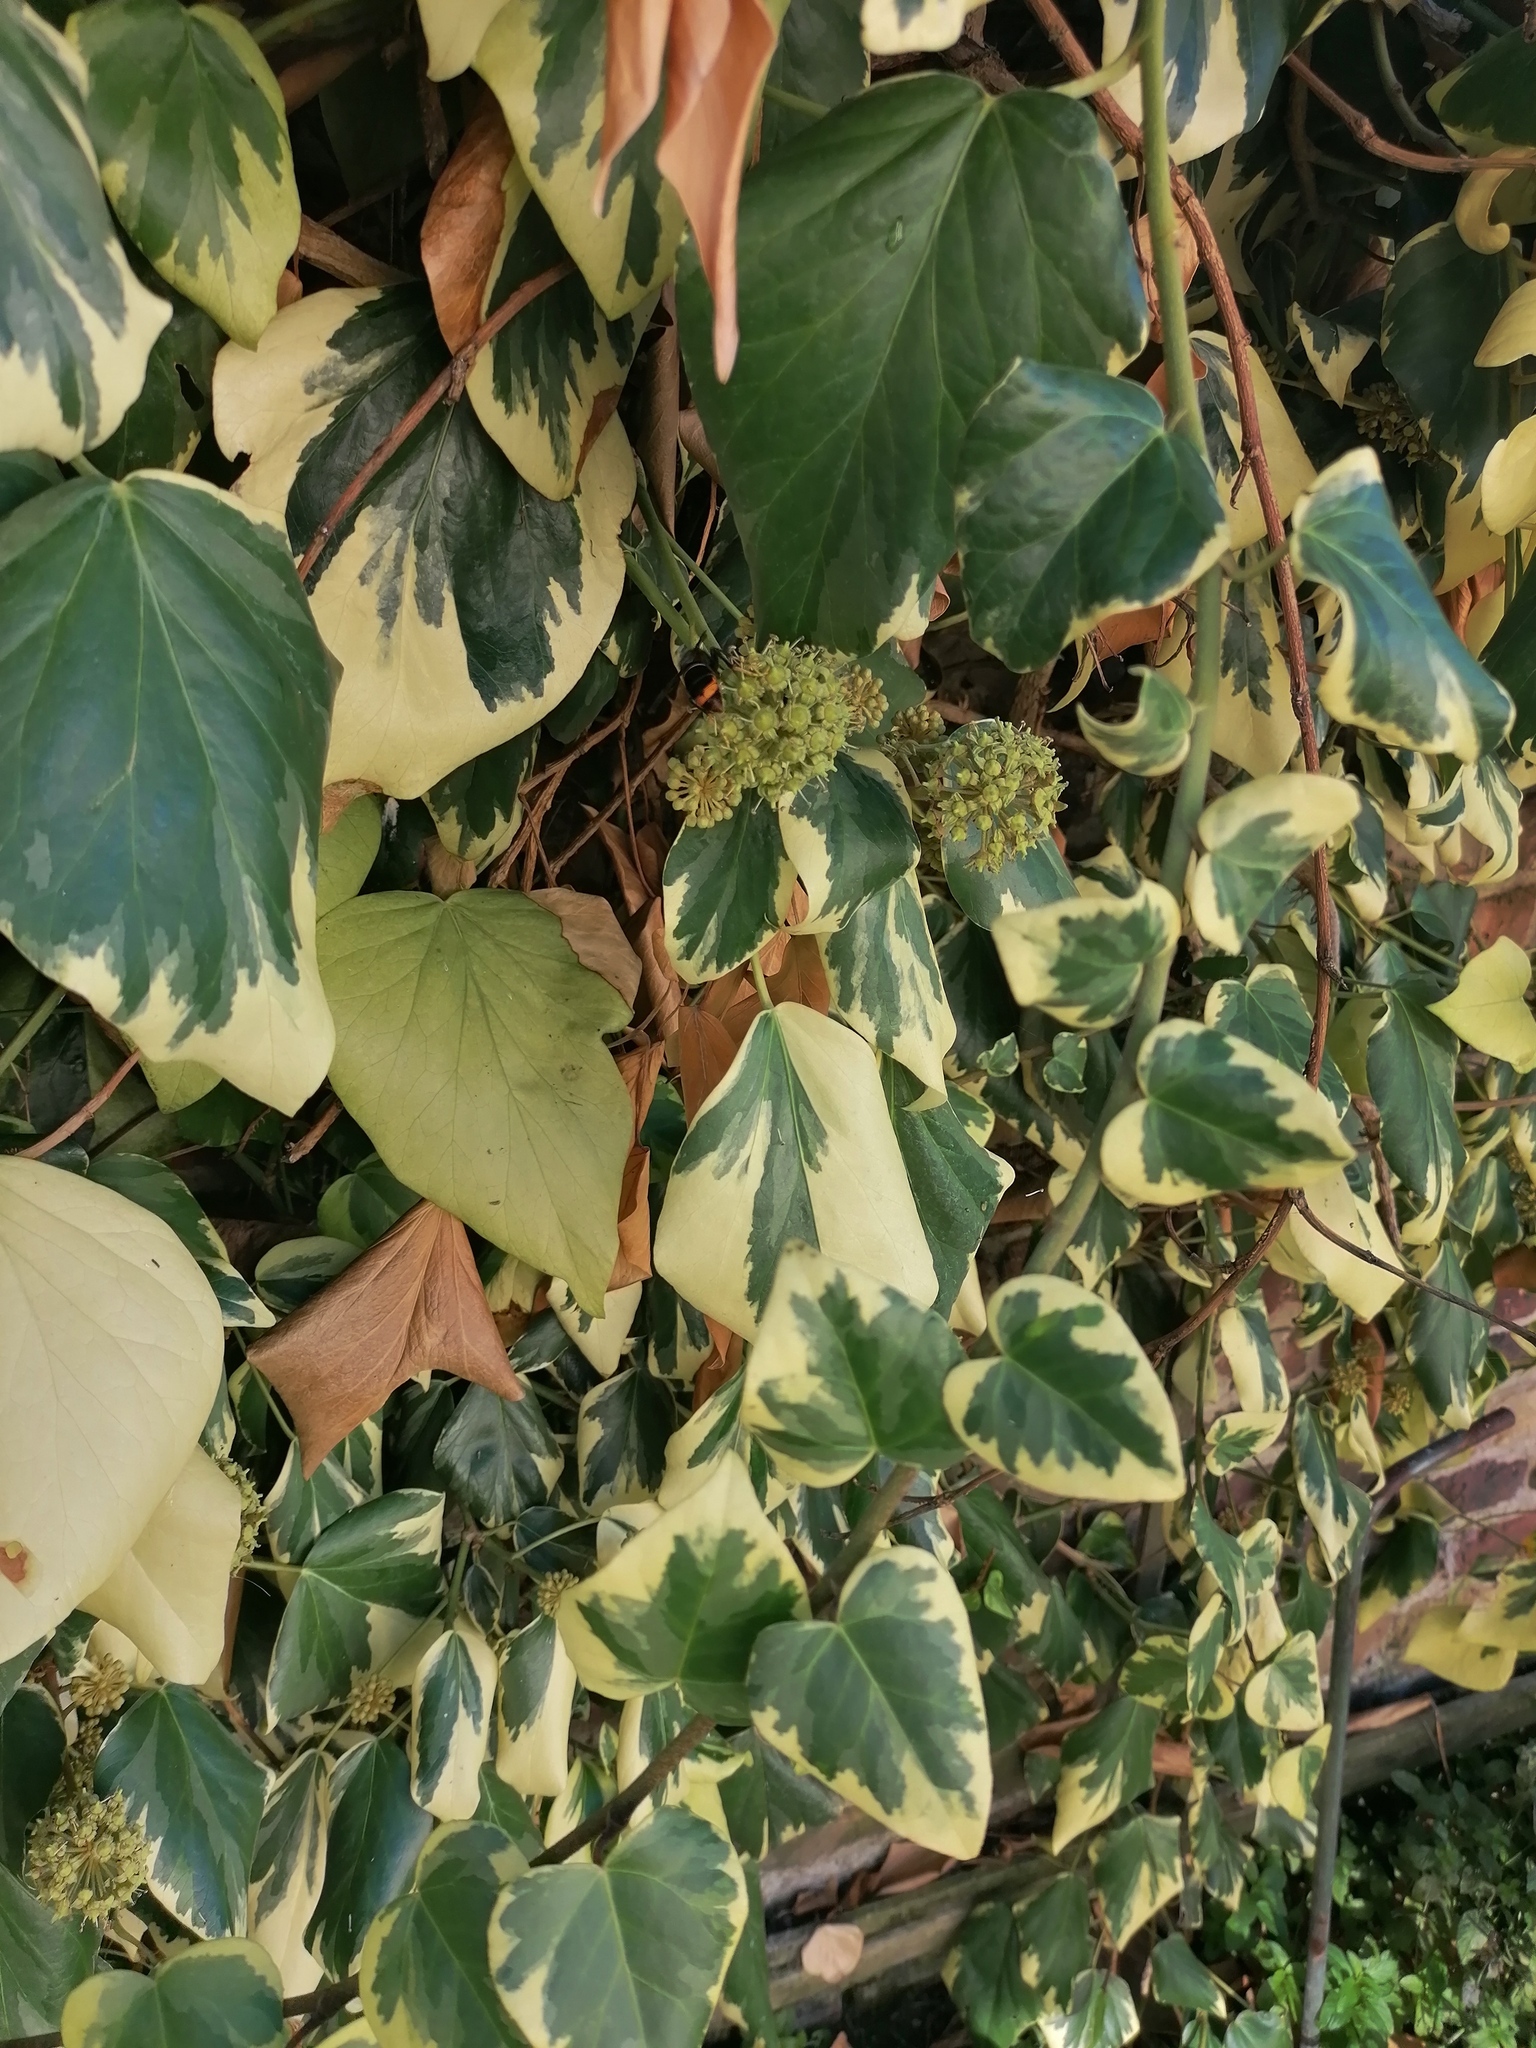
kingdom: Animalia
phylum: Arthropoda
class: Insecta
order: Hymenoptera
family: Vespidae
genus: Vespa
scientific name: Vespa velutina
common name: Asian hornet
